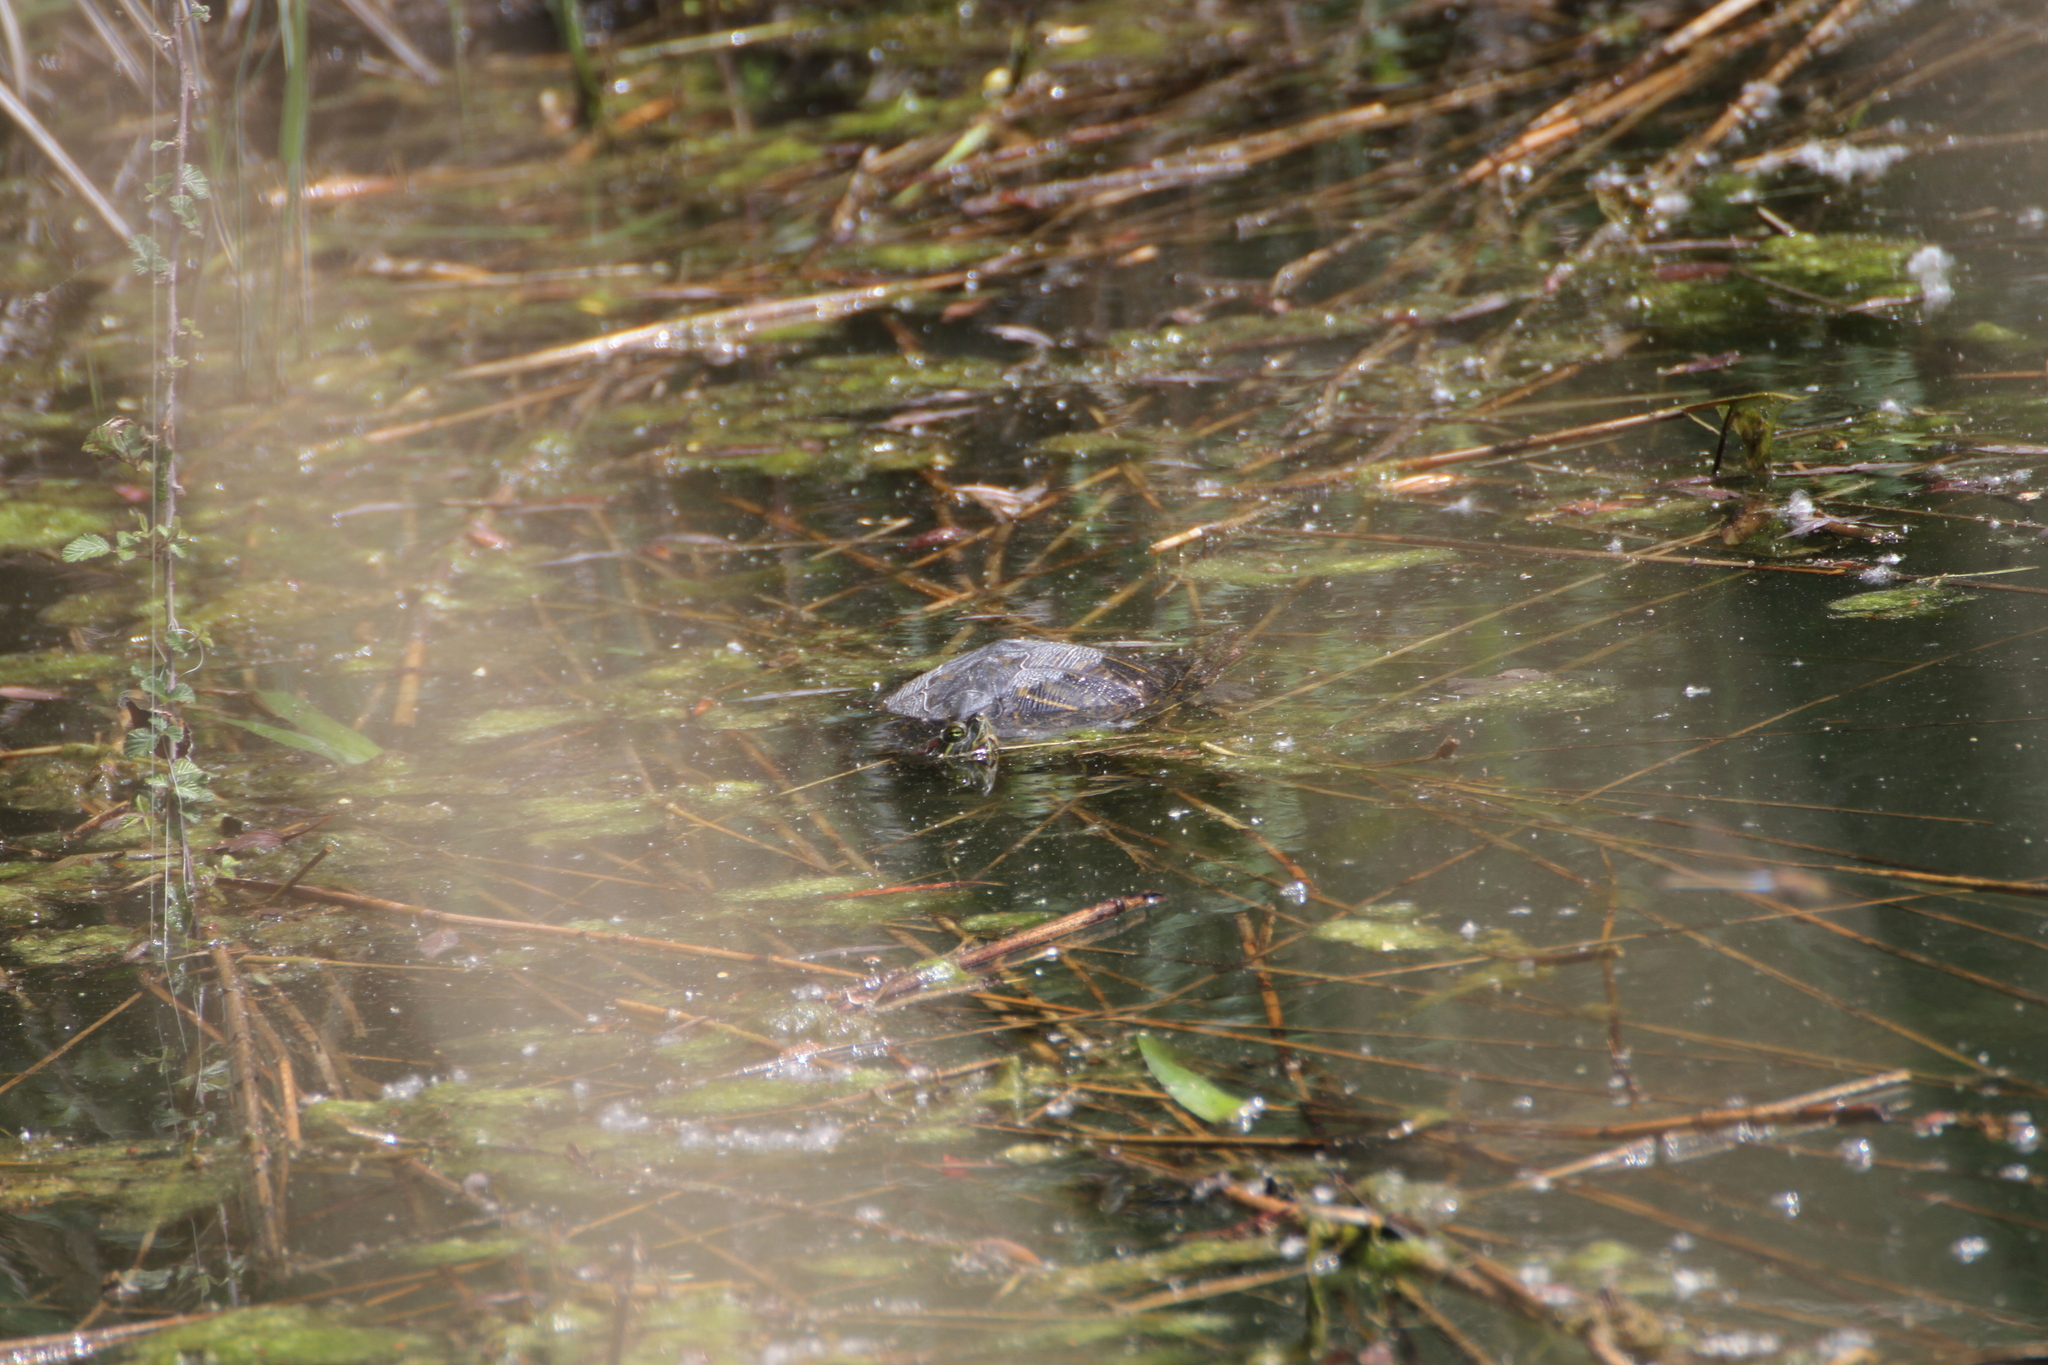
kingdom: Animalia
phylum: Chordata
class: Testudines
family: Emydidae
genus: Trachemys
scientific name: Trachemys scripta
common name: Slider
